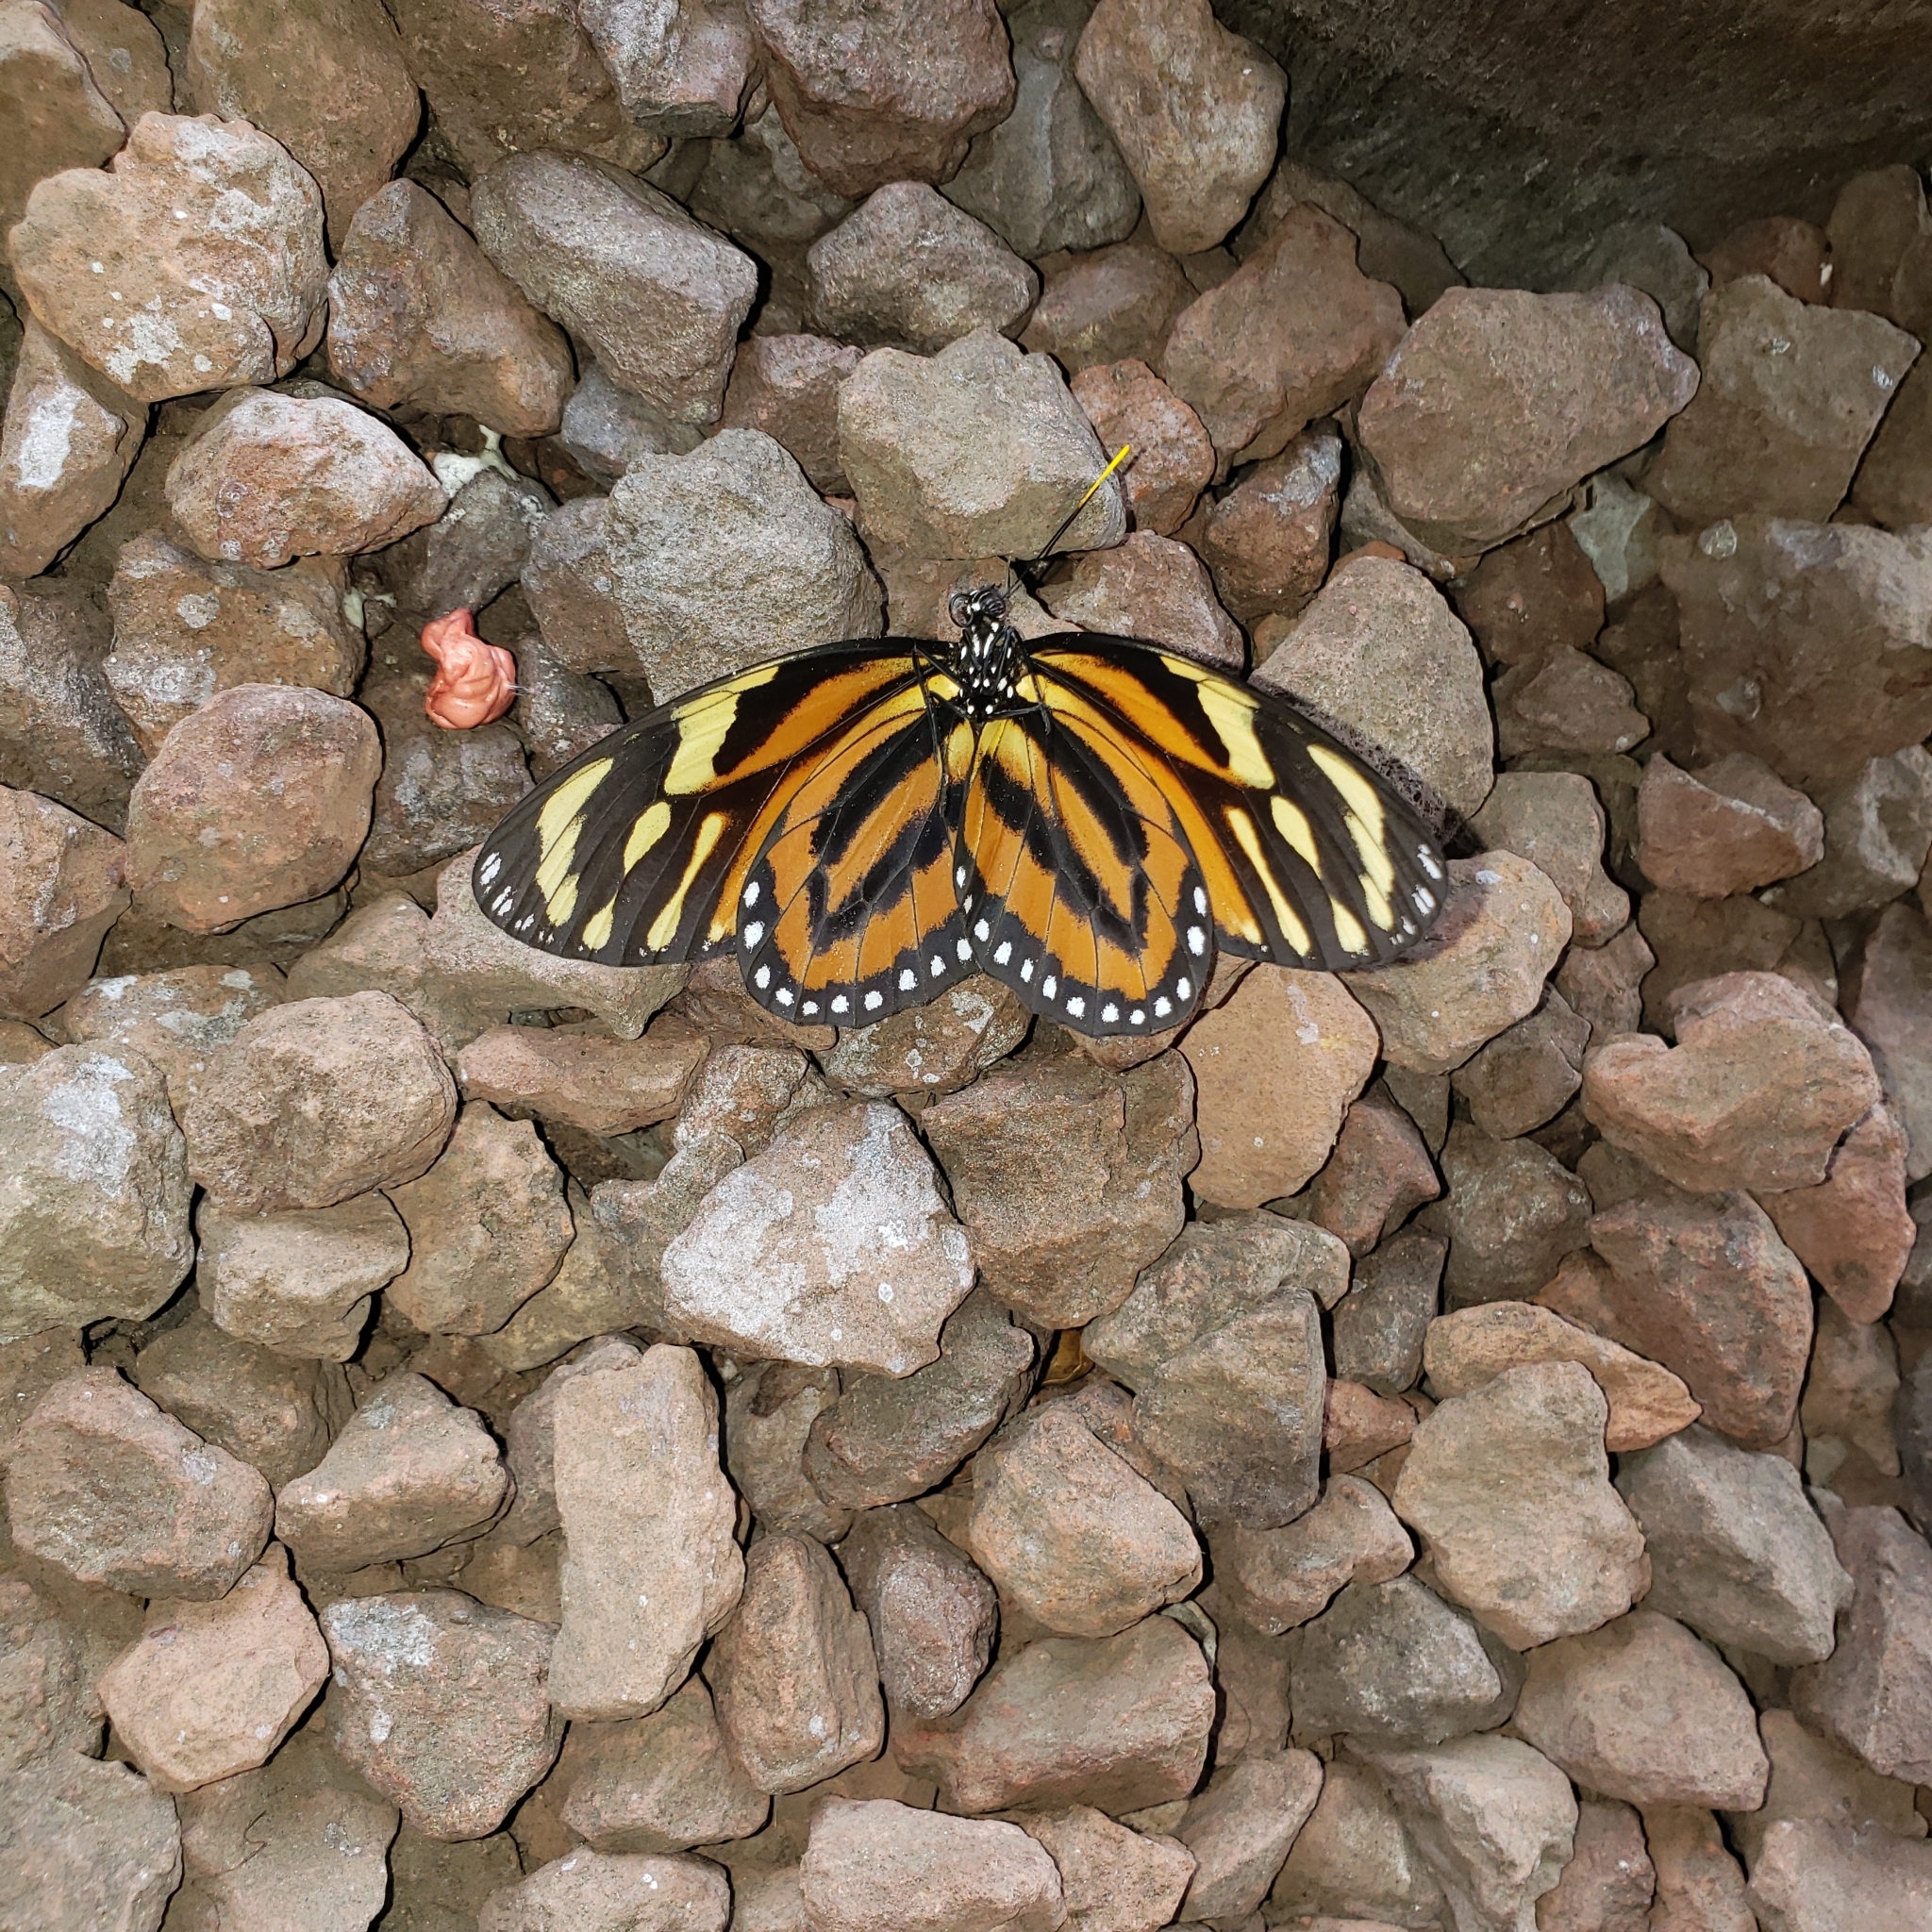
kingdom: Animalia
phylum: Arthropoda
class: Insecta
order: Lepidoptera
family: Nymphalidae
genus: Lycorea
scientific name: Lycorea cleobaea
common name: Tiger mimic-queen
